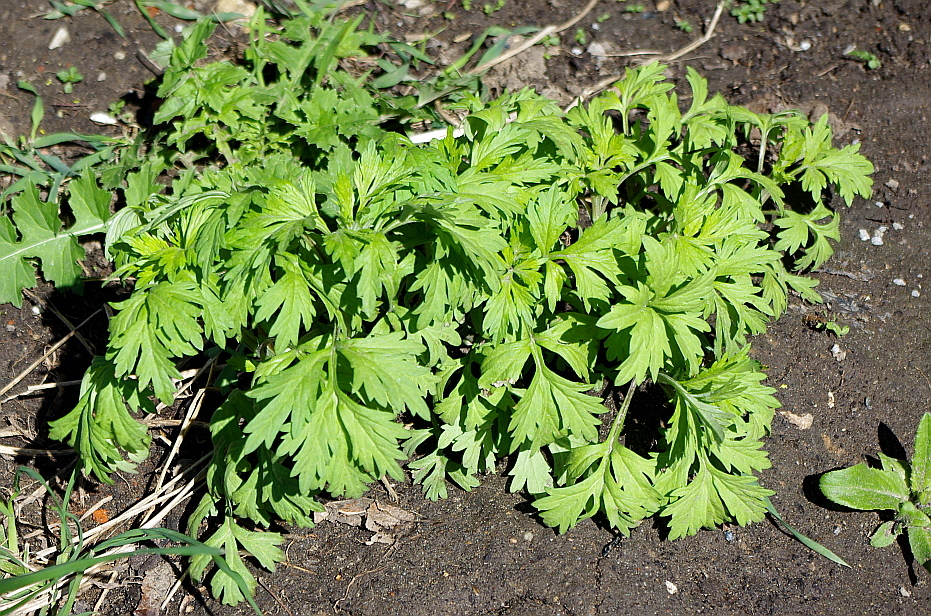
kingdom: Plantae
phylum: Tracheophyta
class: Magnoliopsida
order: Asterales
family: Asteraceae
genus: Artemisia
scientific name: Artemisia vulgaris
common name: Mugwort
